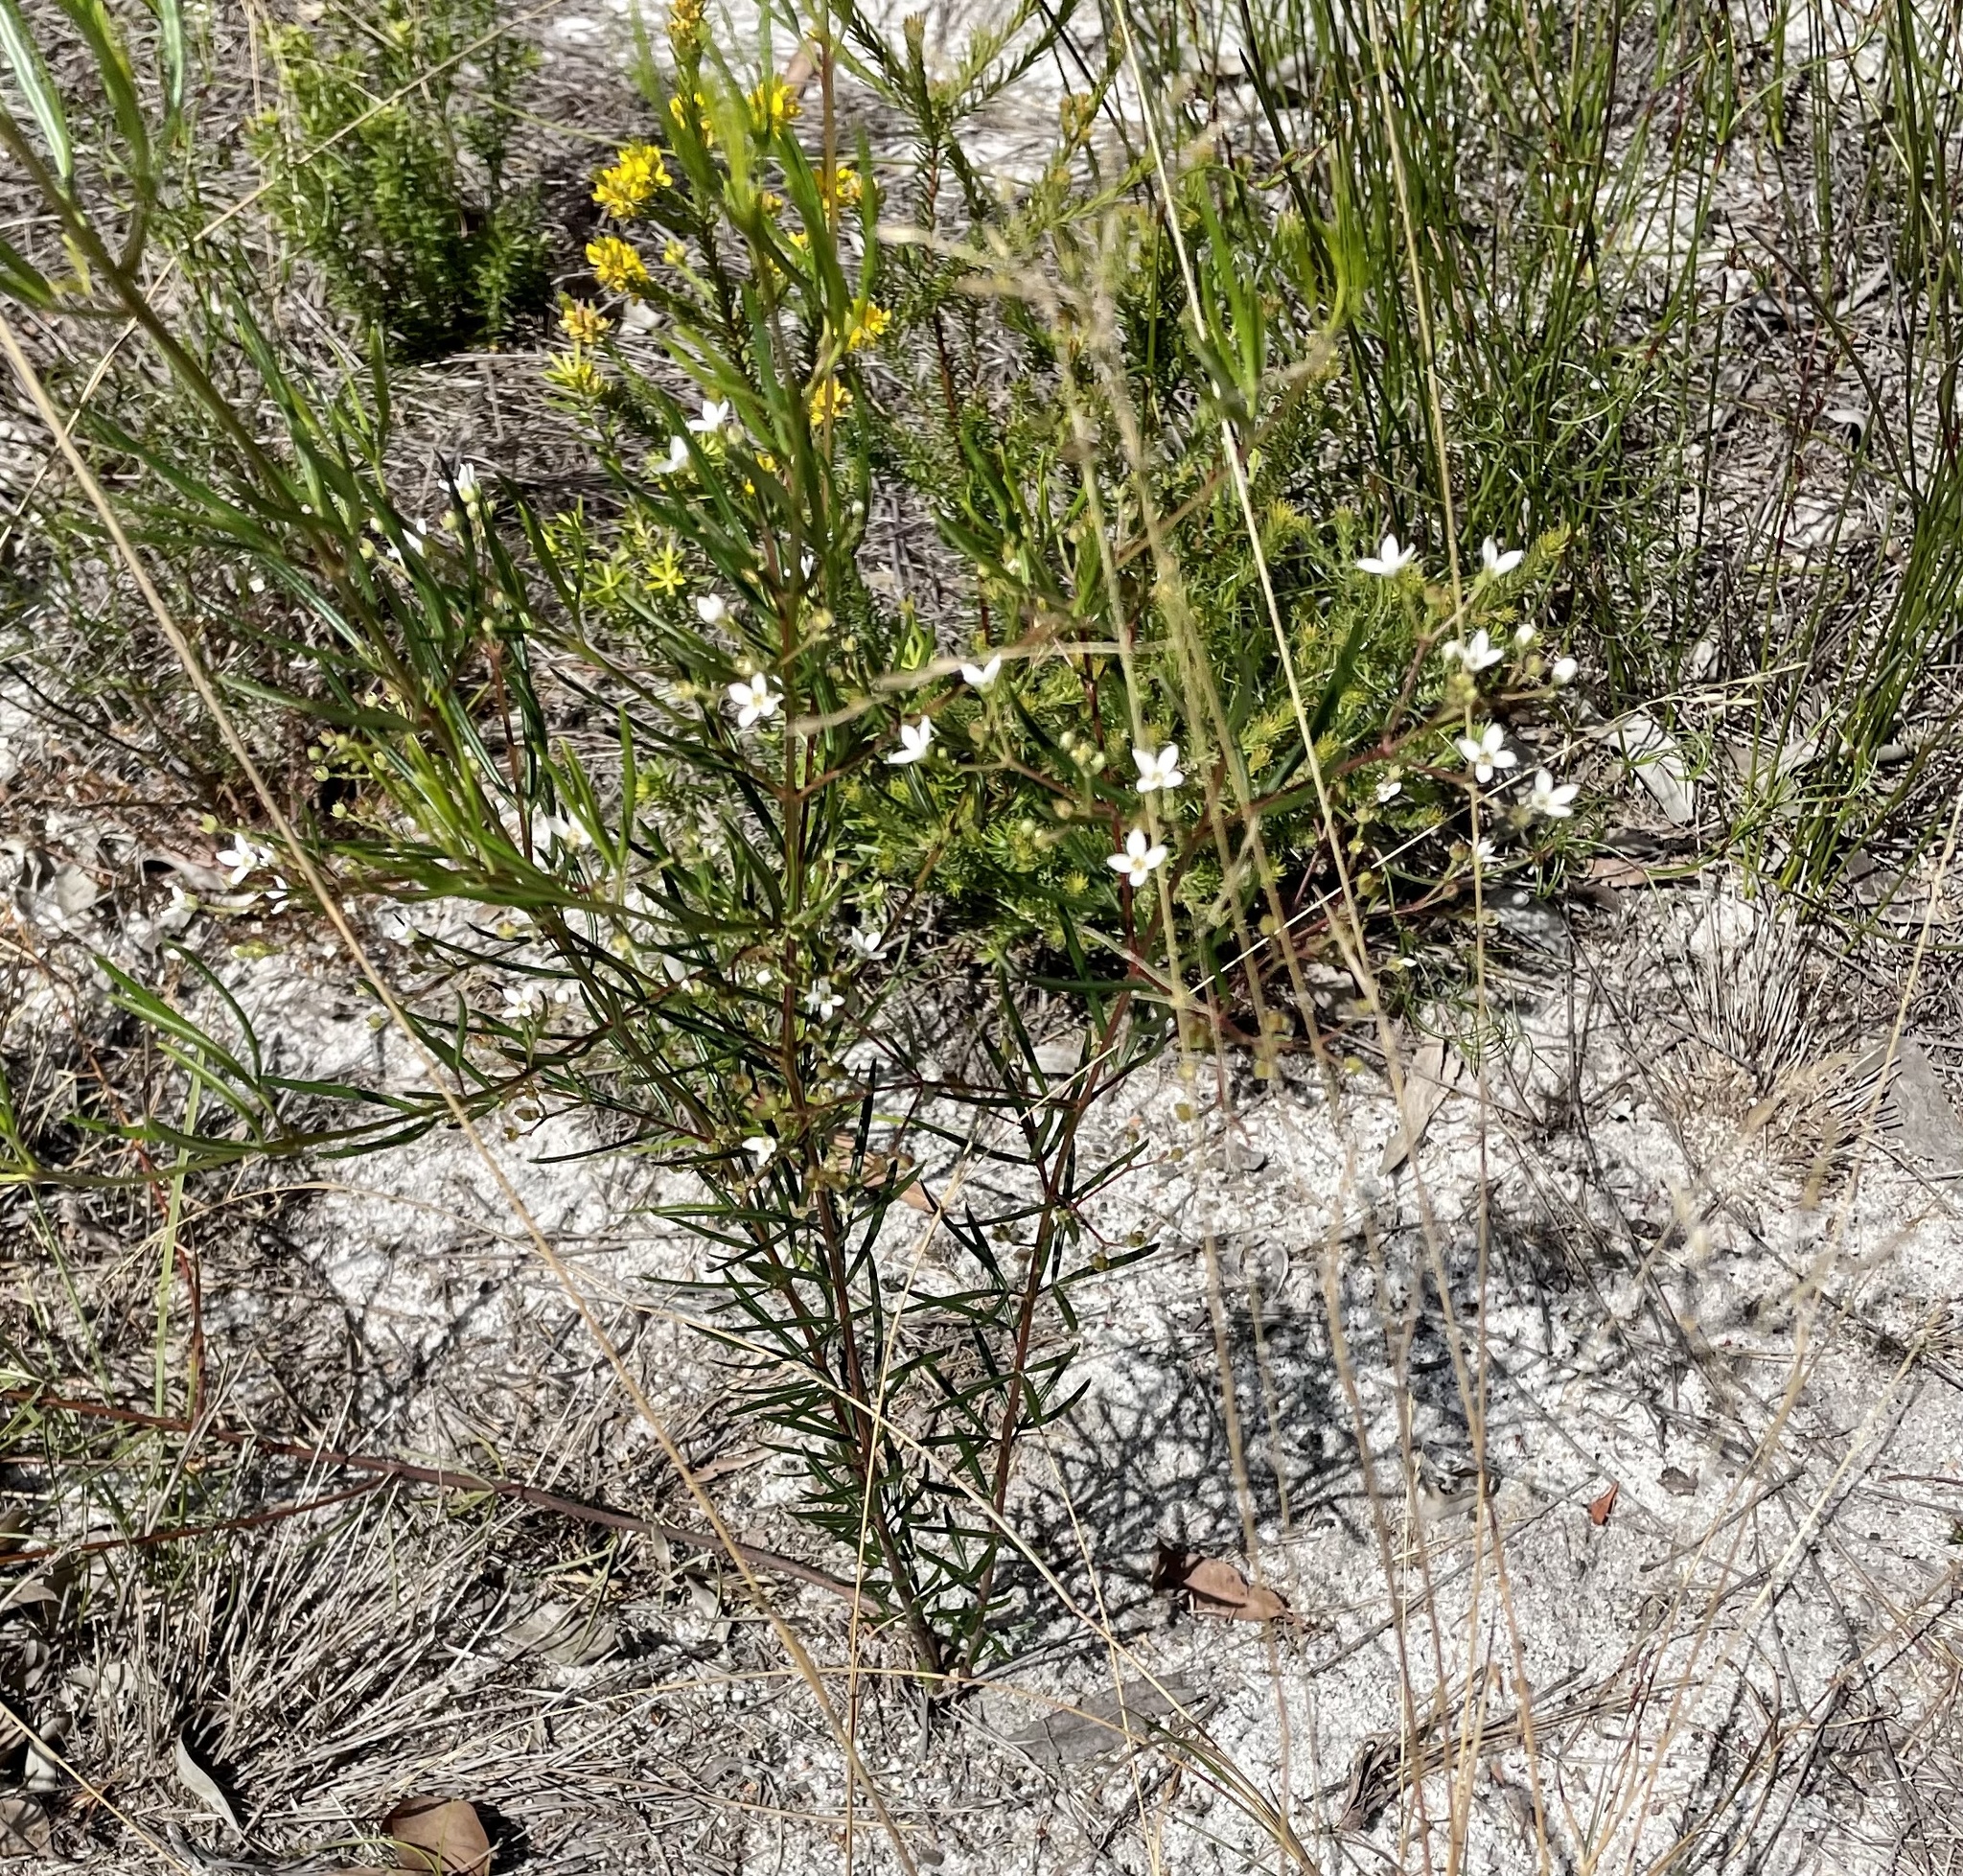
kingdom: Plantae
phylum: Tracheophyta
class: Magnoliopsida
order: Sapindales
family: Rutaceae
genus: Zieria
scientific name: Zieria laxiflora
